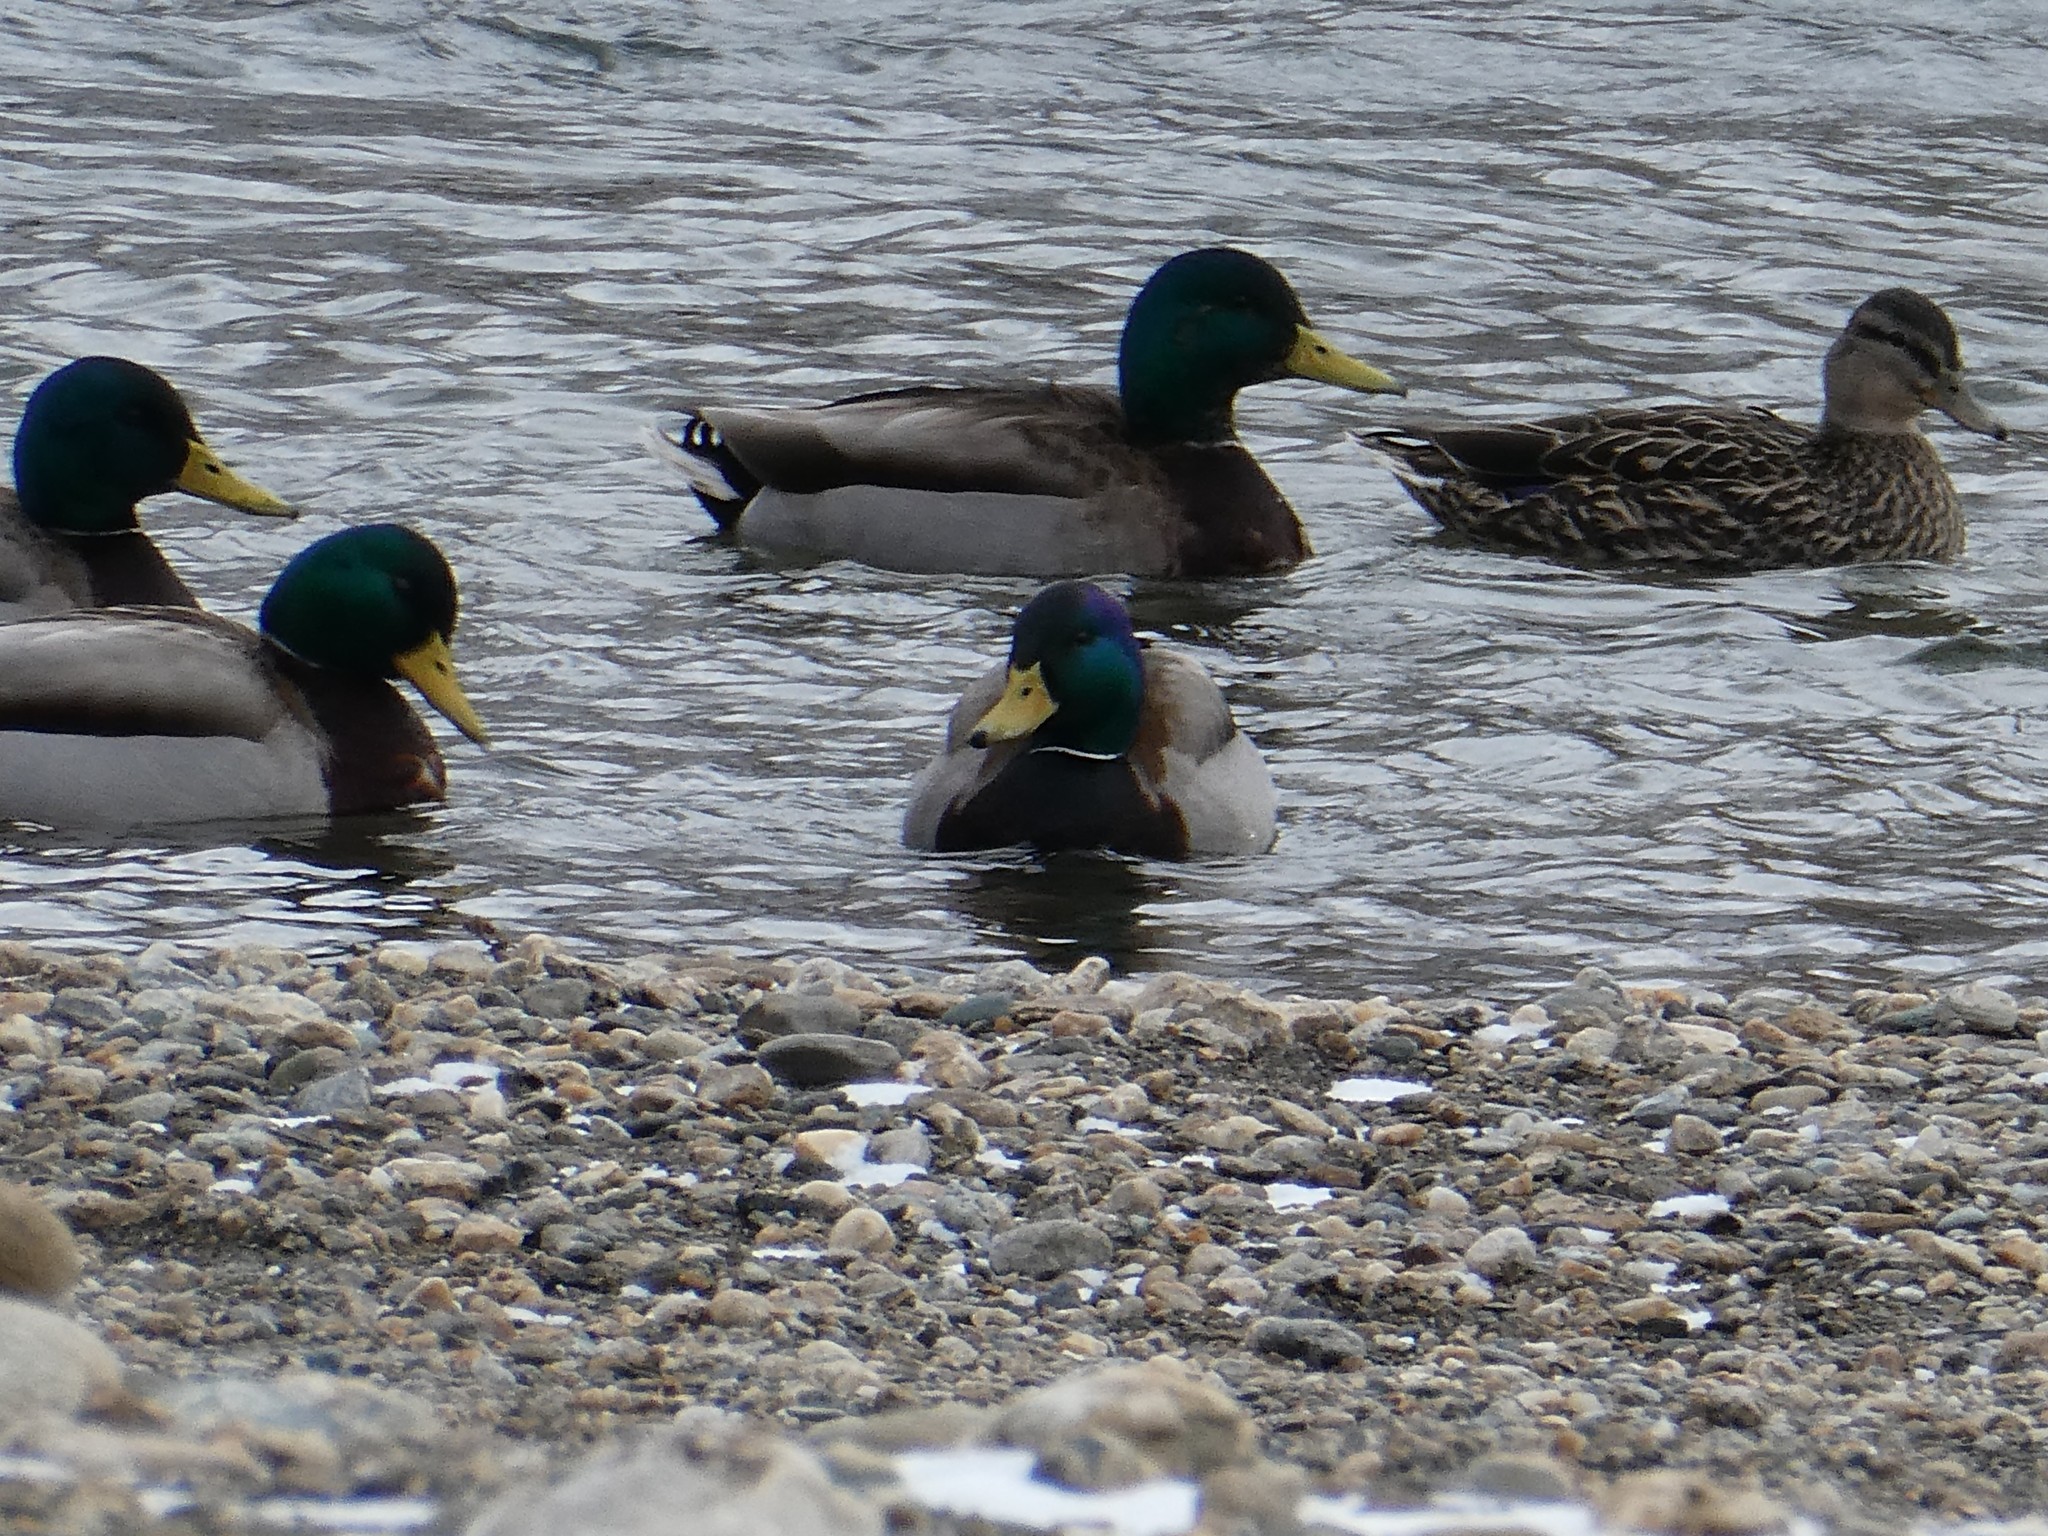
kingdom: Animalia
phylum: Chordata
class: Aves
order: Anseriformes
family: Anatidae
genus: Anas
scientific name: Anas platyrhynchos
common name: Mallard
